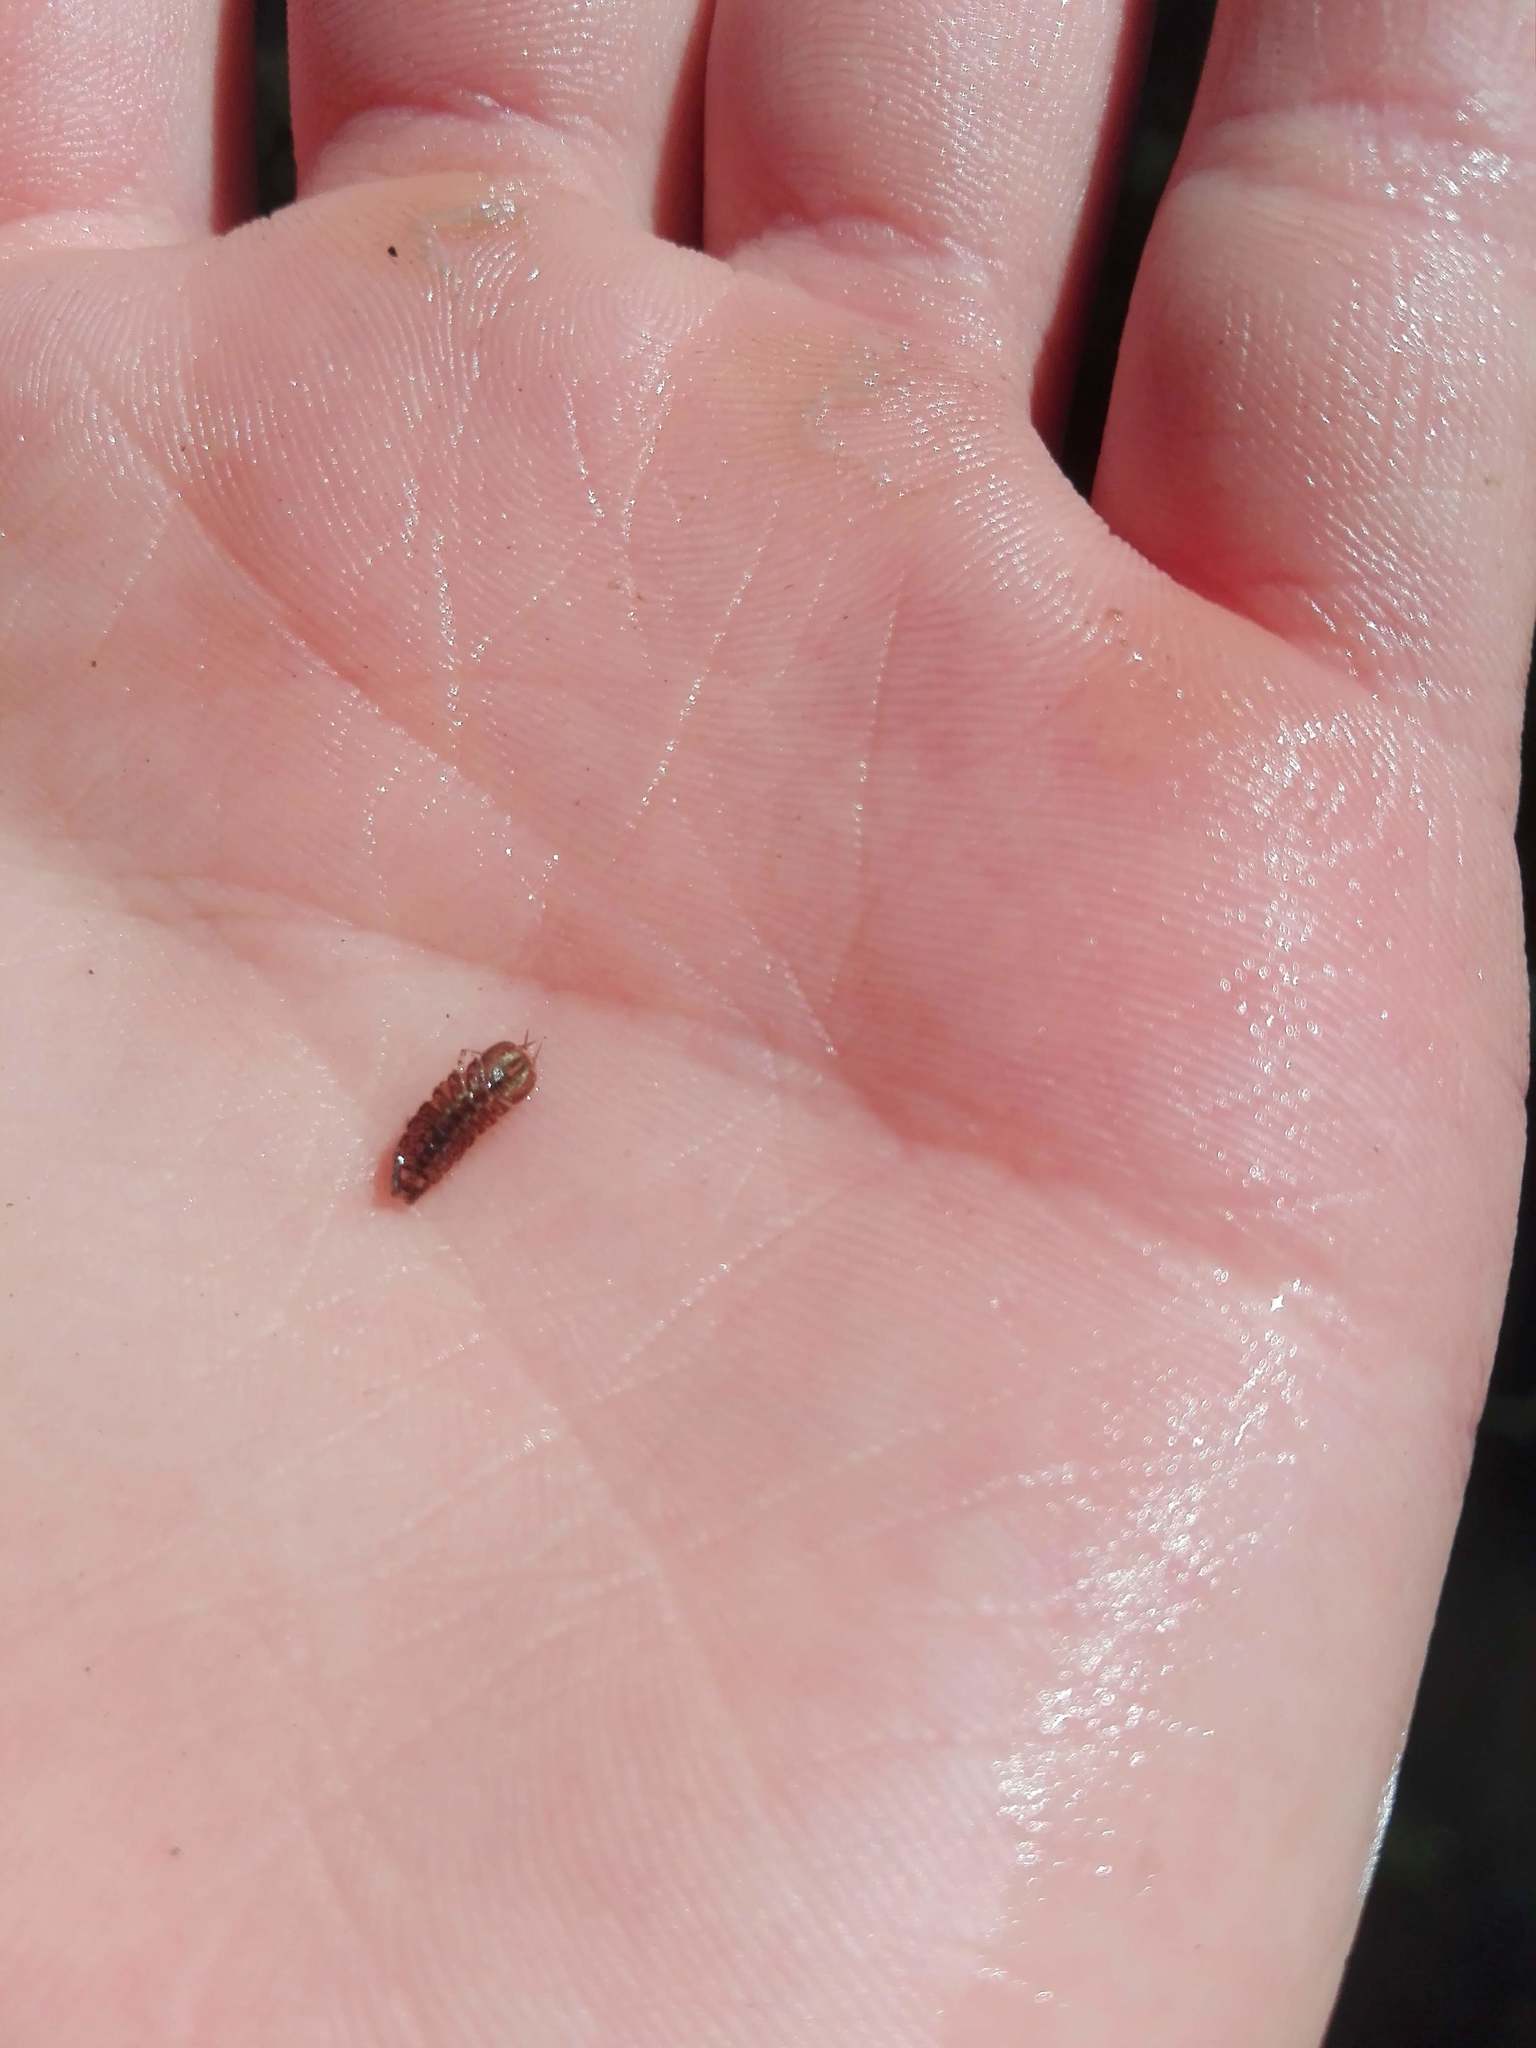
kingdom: Animalia
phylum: Arthropoda
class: Malacostraca
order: Isopoda
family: Asellidae
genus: Asellus
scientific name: Asellus aquaticus
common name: Water hog lice/slaters
